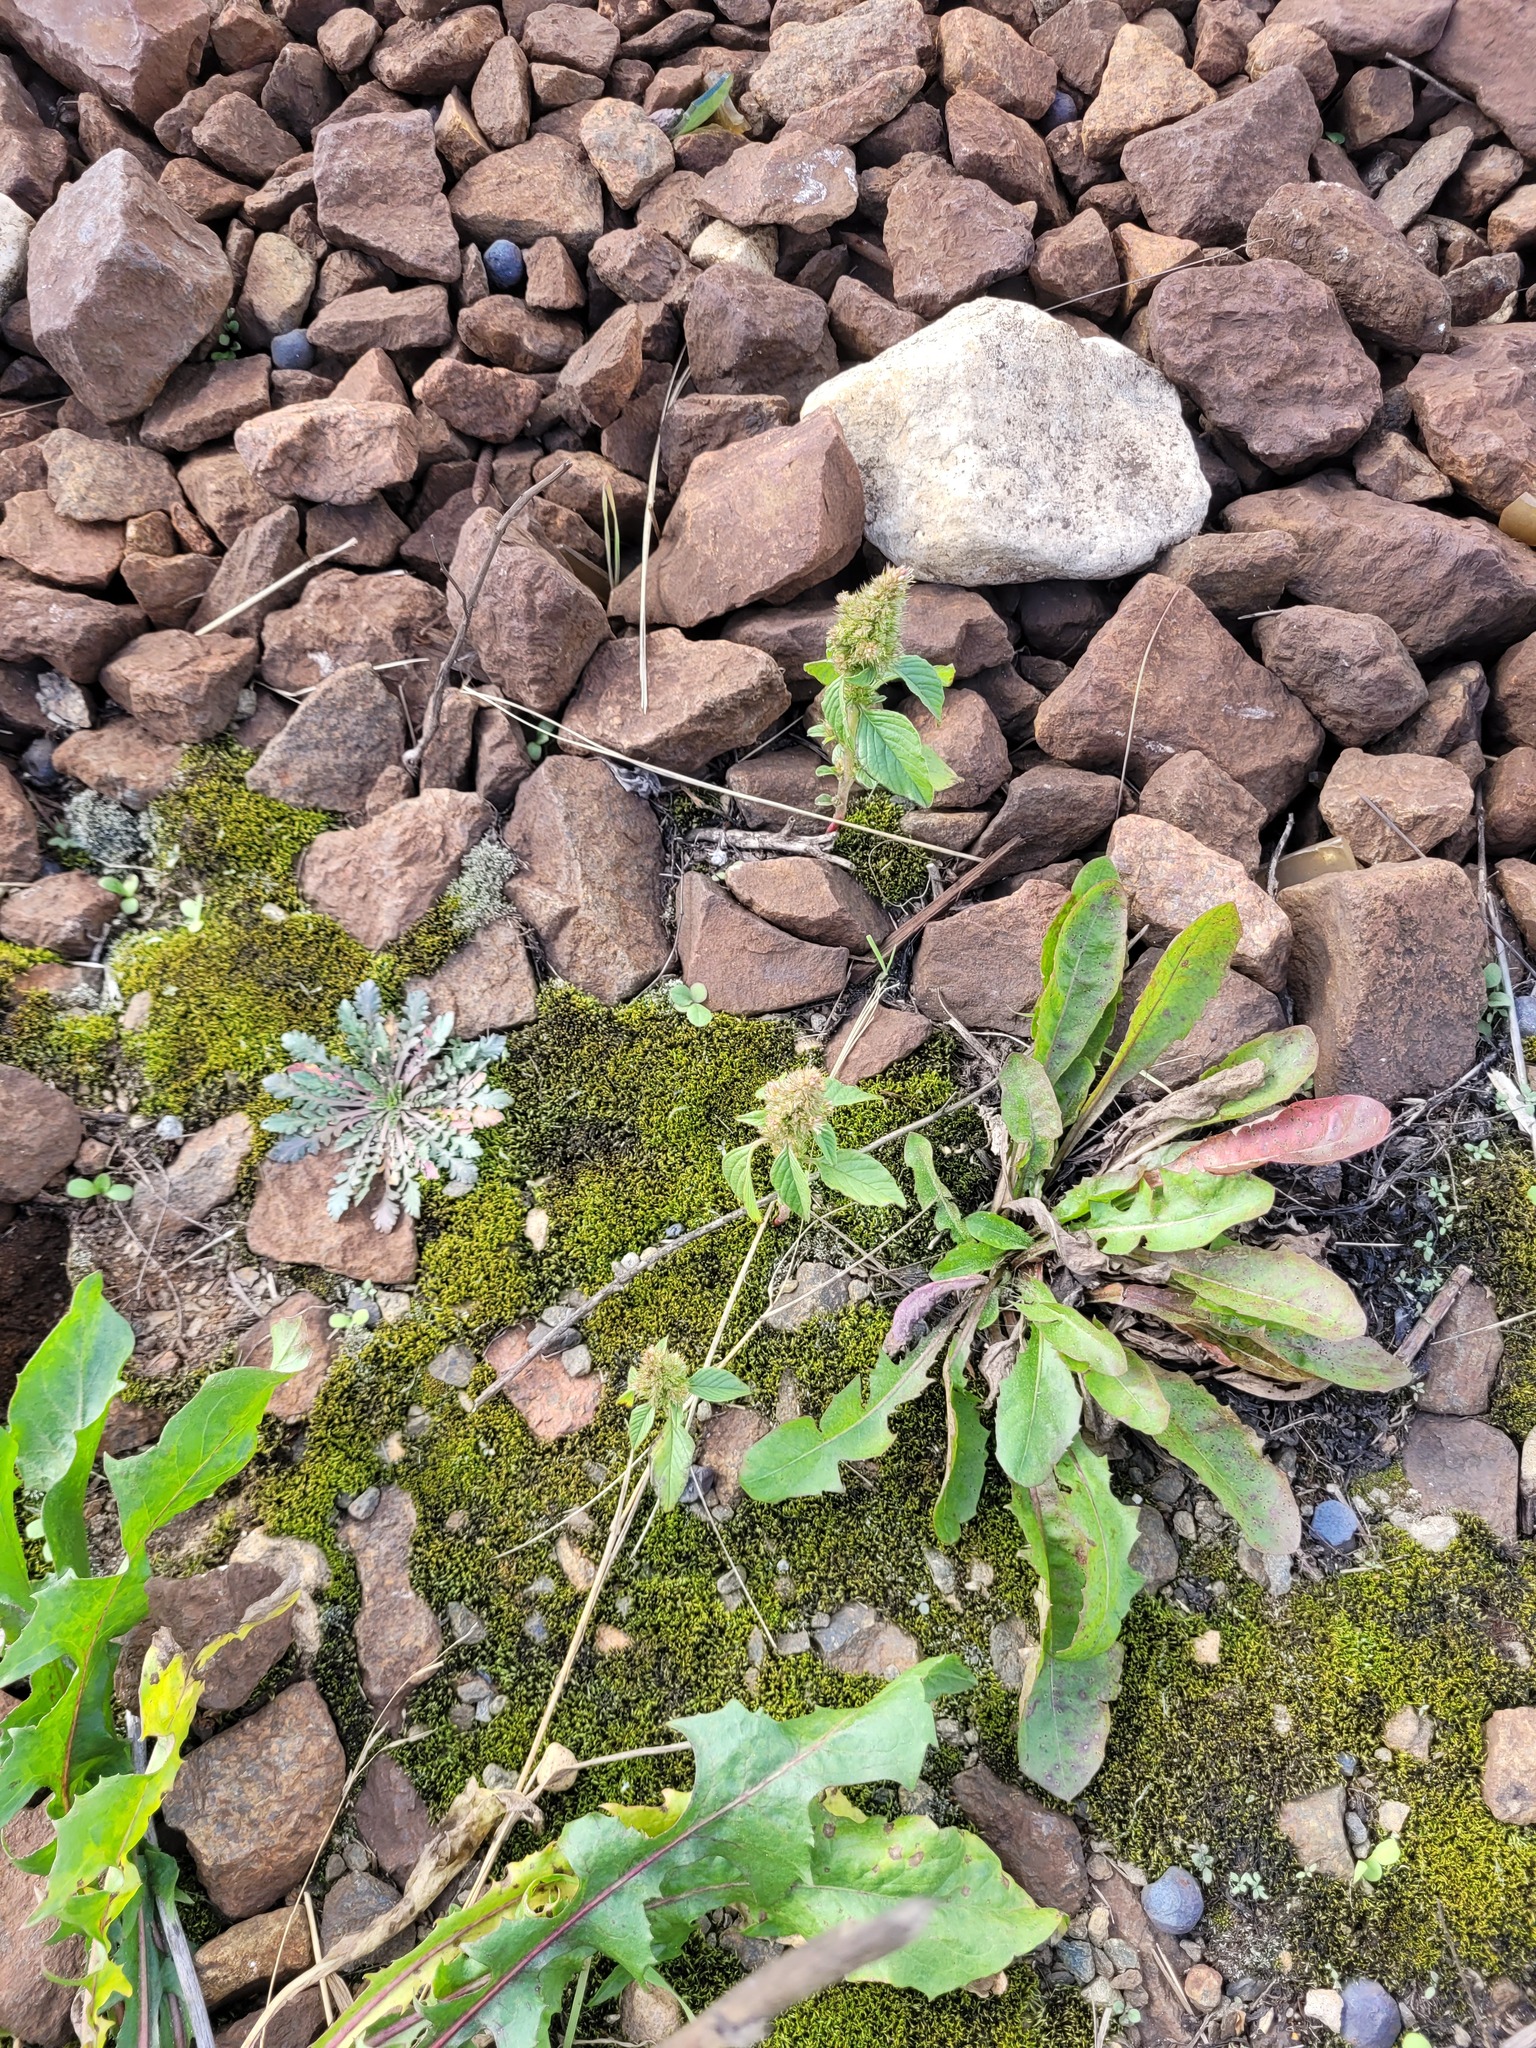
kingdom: Plantae
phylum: Tracheophyta
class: Magnoliopsida
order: Caryophyllales
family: Amaranthaceae
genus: Amaranthus
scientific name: Amaranthus retroflexus
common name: Redroot amaranth
